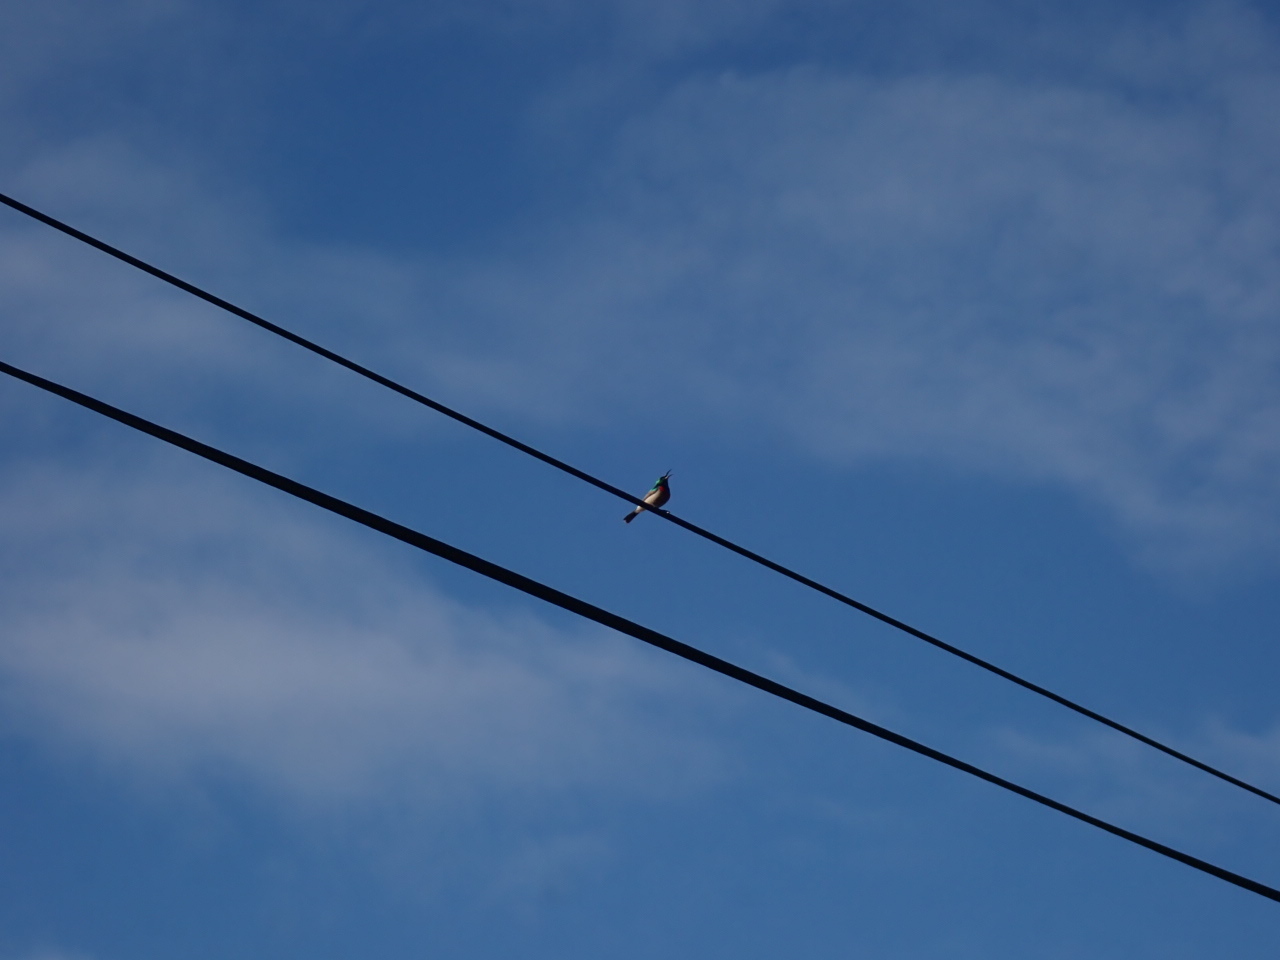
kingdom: Animalia
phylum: Chordata
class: Aves
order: Passeriformes
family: Nectariniidae
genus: Cinnyris
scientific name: Cinnyris chalybeus
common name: Southern double-collared sunbird
